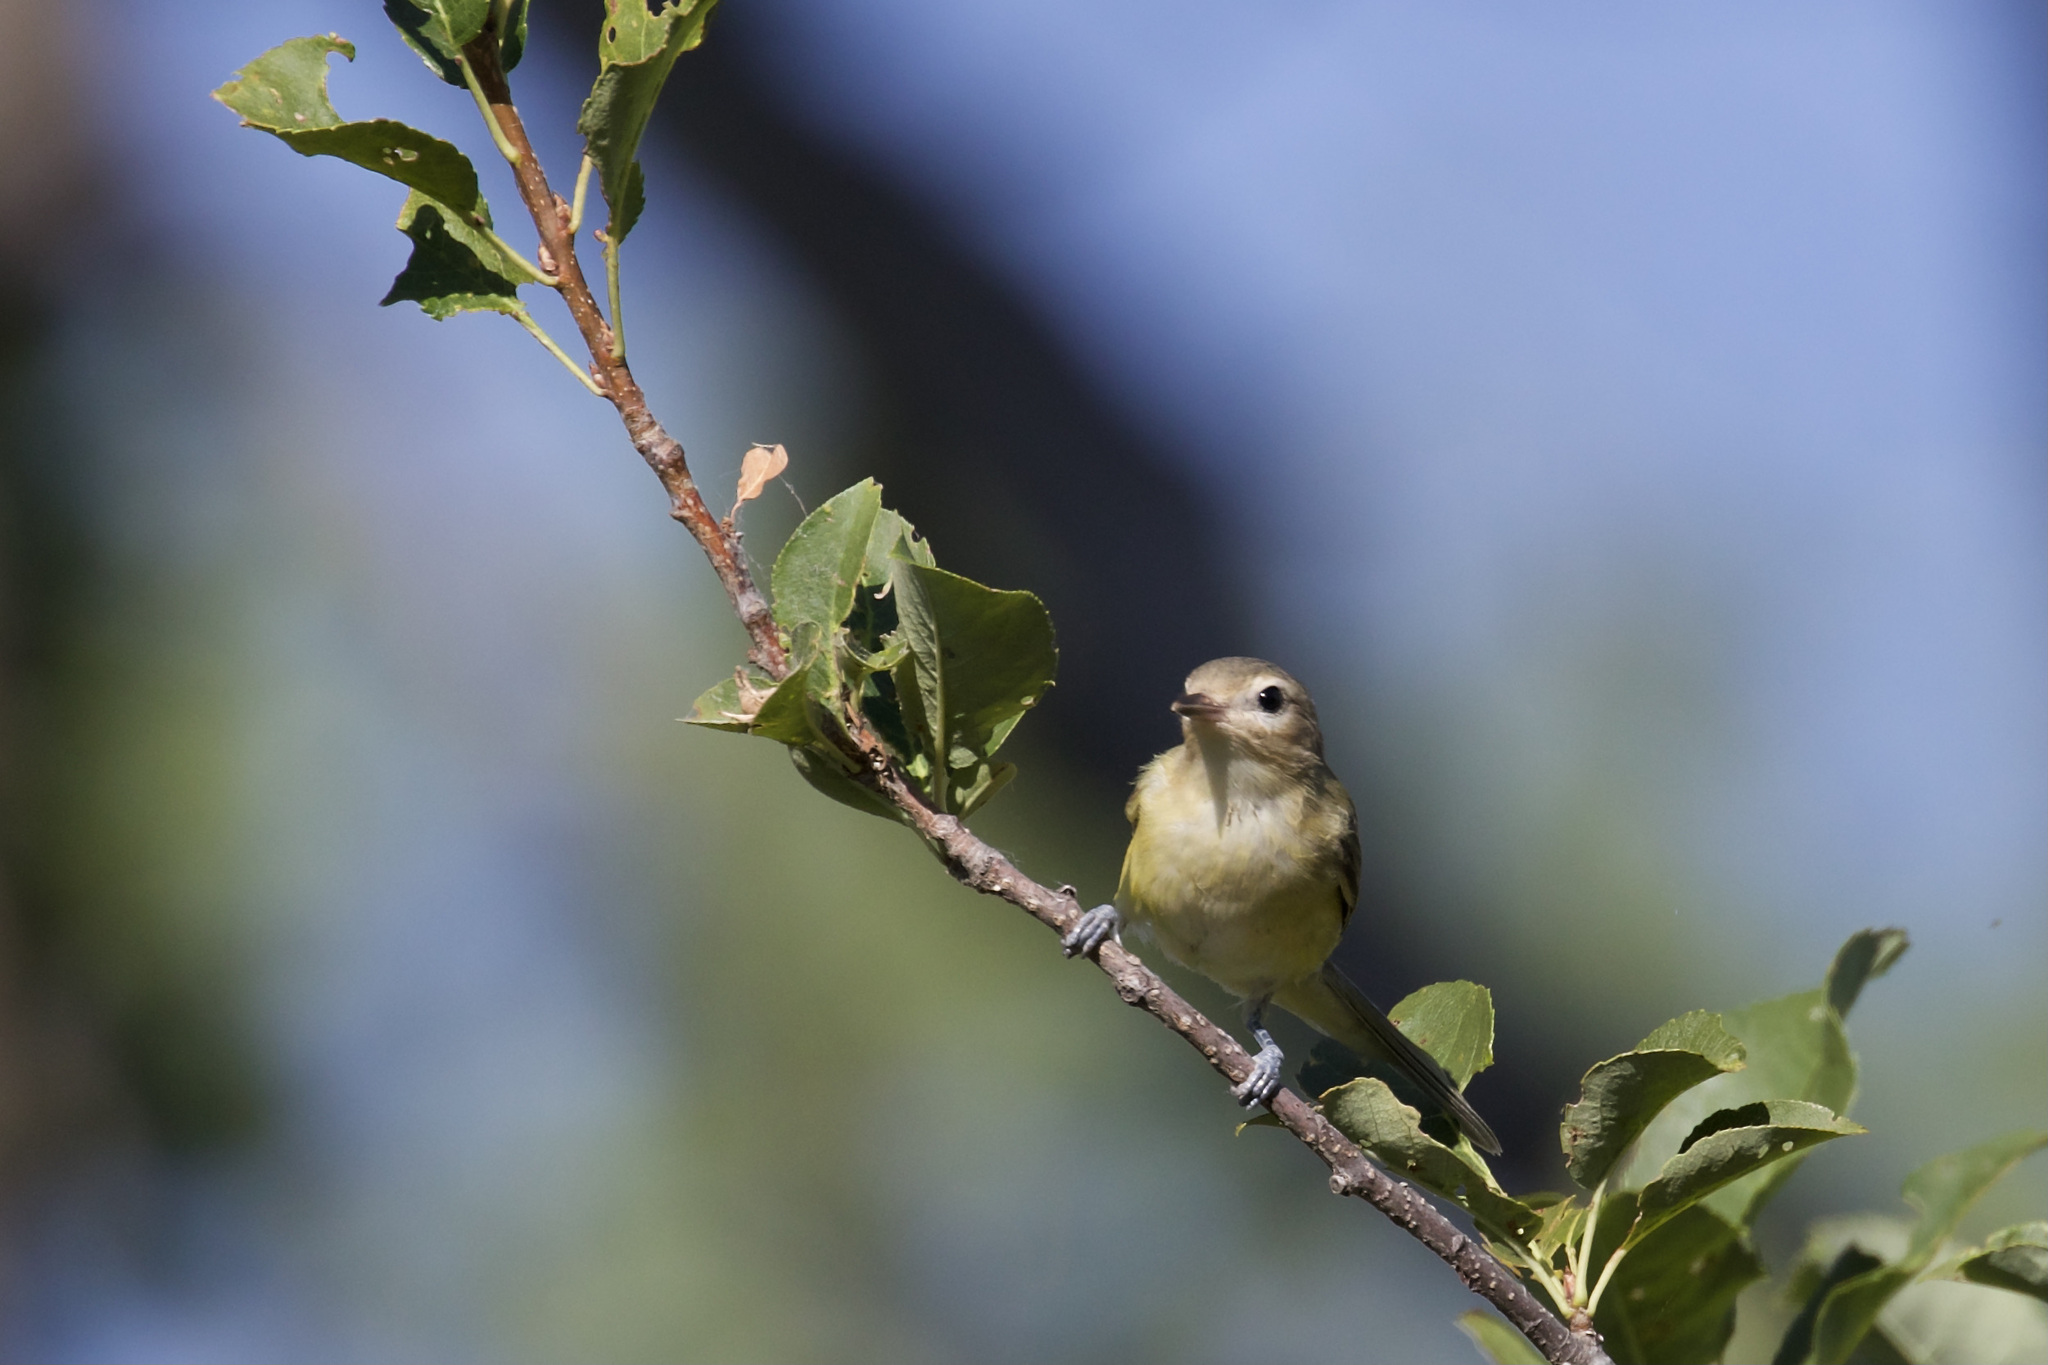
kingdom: Animalia
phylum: Chordata
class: Aves
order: Passeriformes
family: Vireonidae
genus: Vireo
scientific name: Vireo gilvus
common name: Warbling vireo
